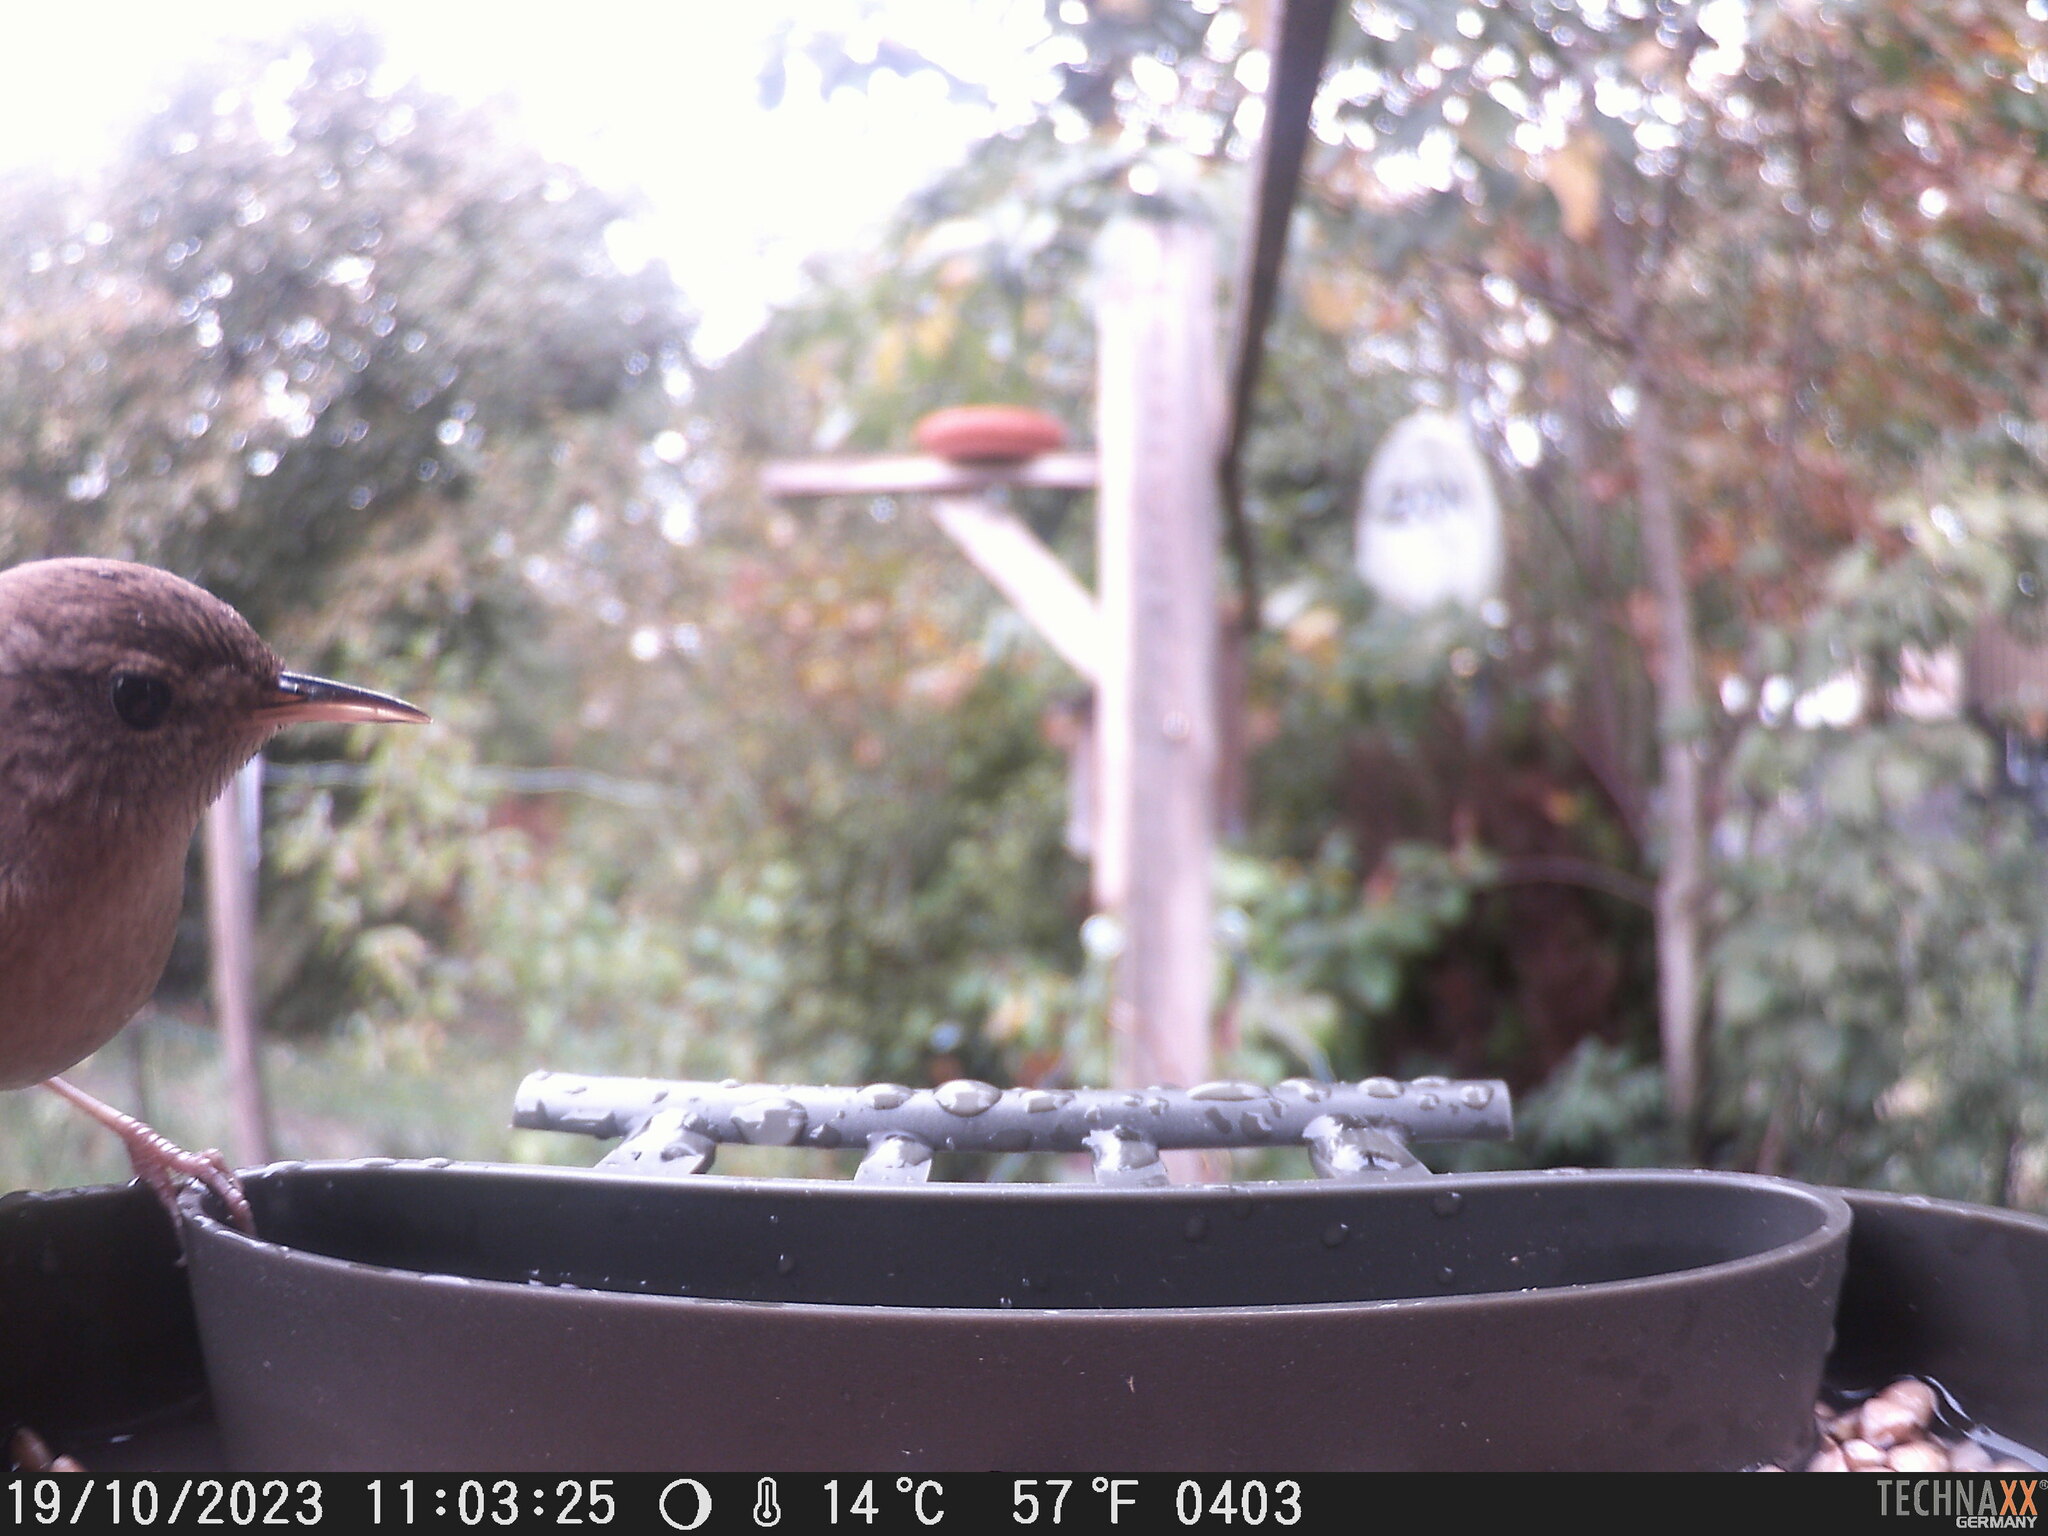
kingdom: Animalia
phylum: Chordata
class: Aves
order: Passeriformes
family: Troglodytidae
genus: Troglodytes
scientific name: Troglodytes troglodytes
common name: Eurasian wren
